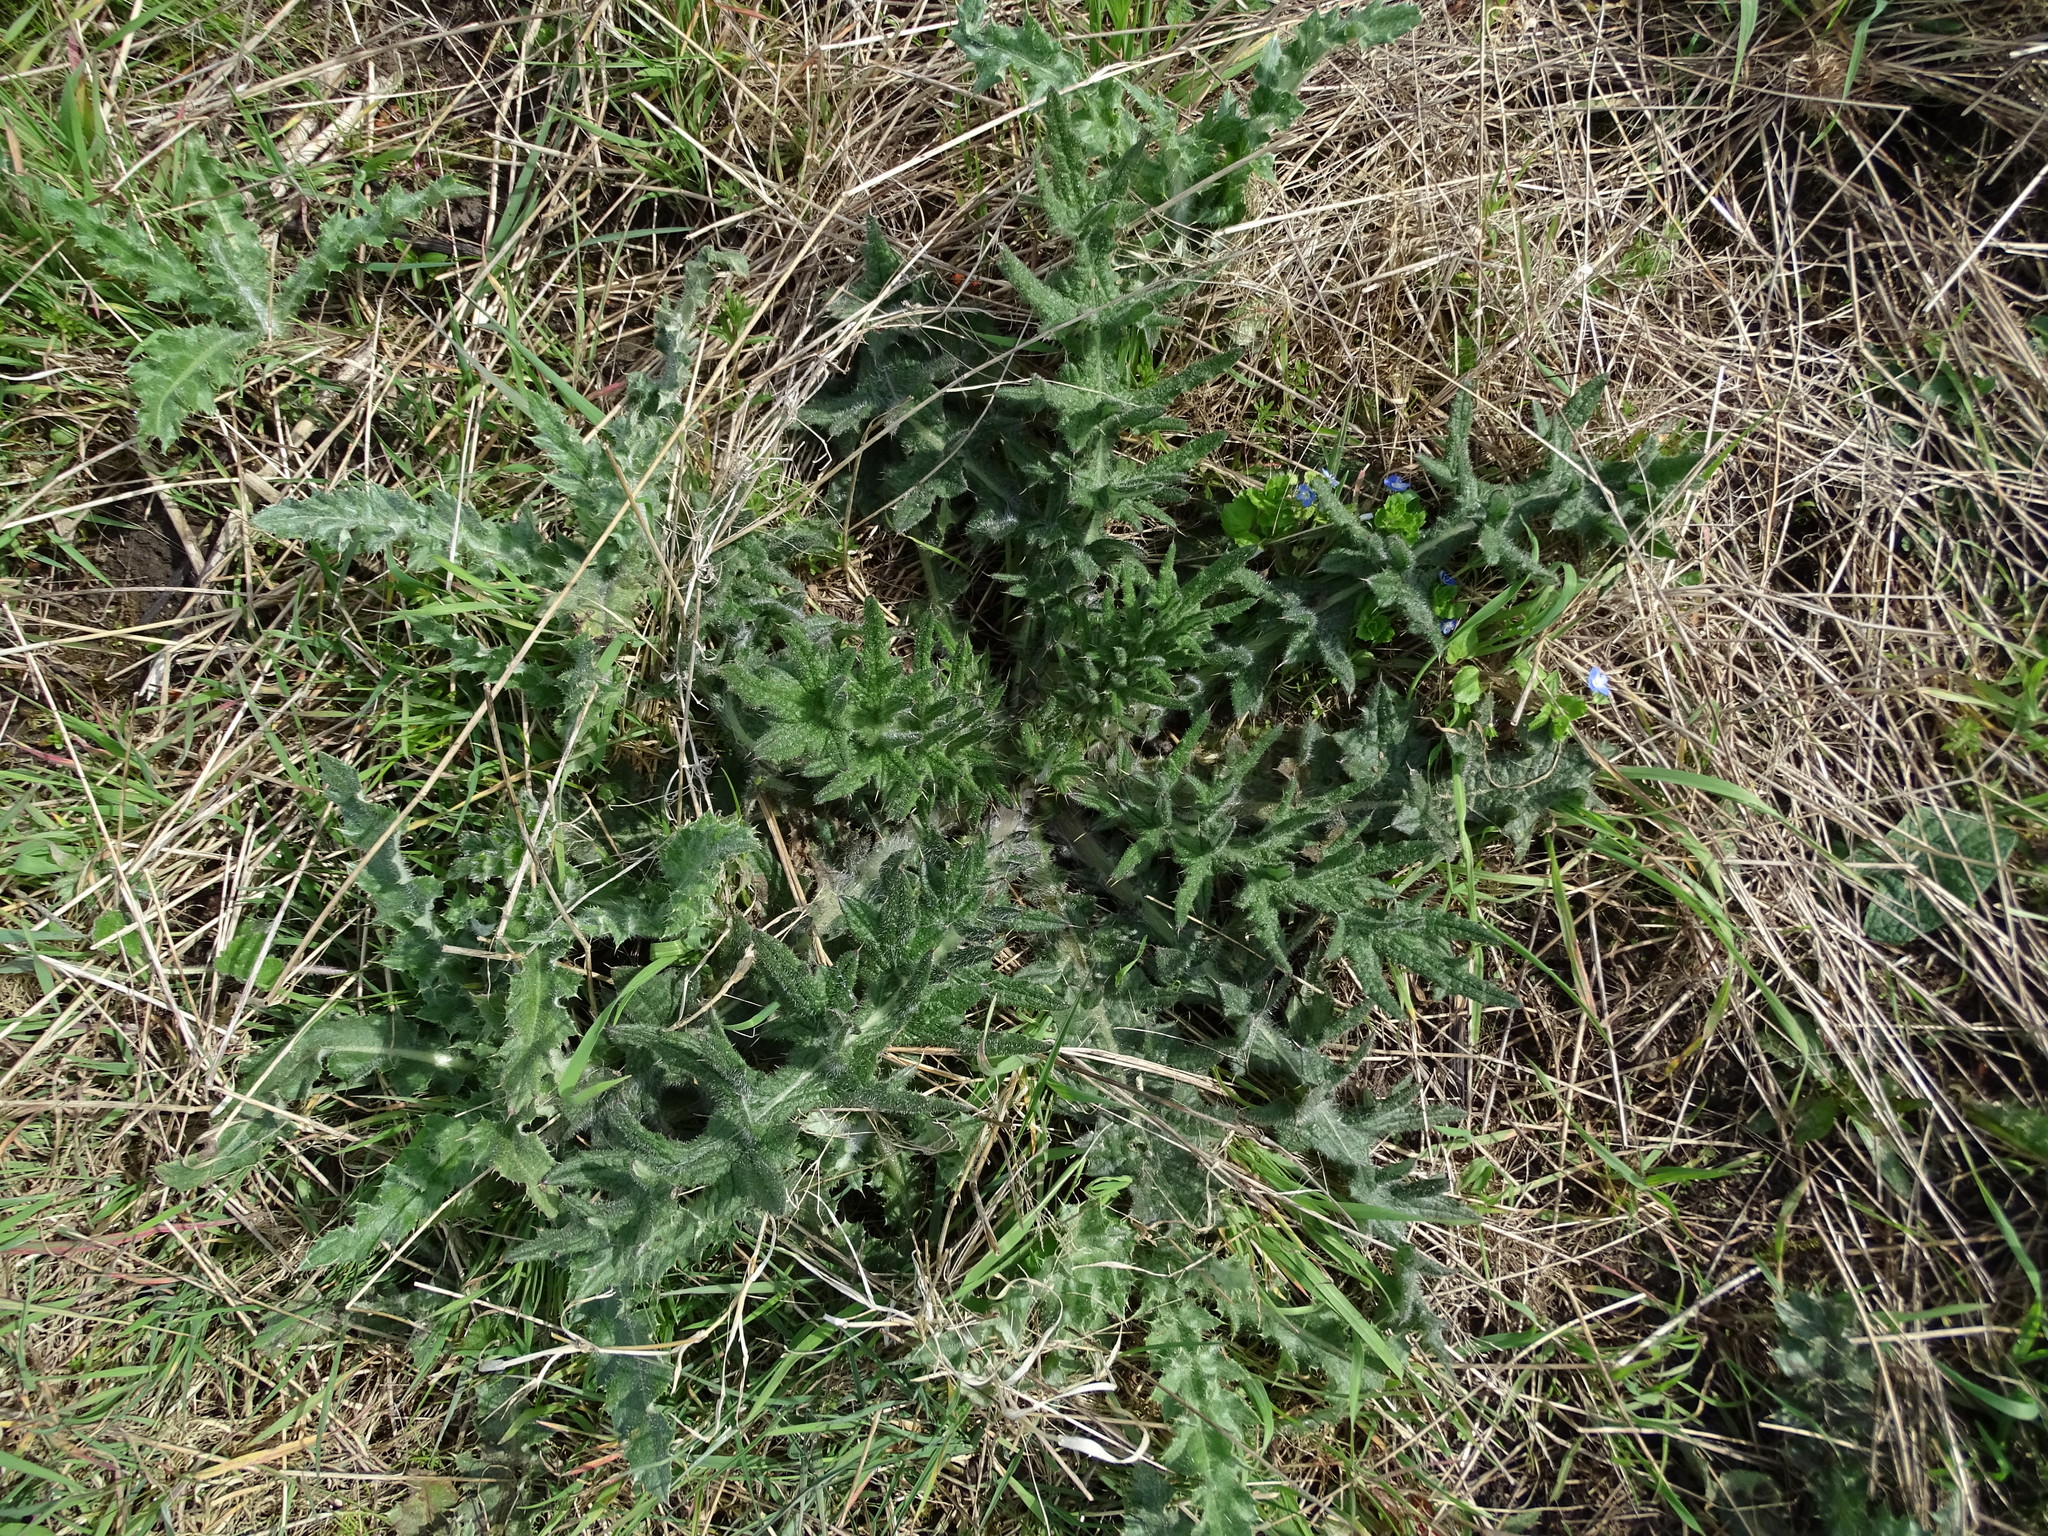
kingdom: Plantae
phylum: Tracheophyta
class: Magnoliopsida
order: Asterales
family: Asteraceae
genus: Cirsium
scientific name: Cirsium vulgare
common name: Bull thistle
